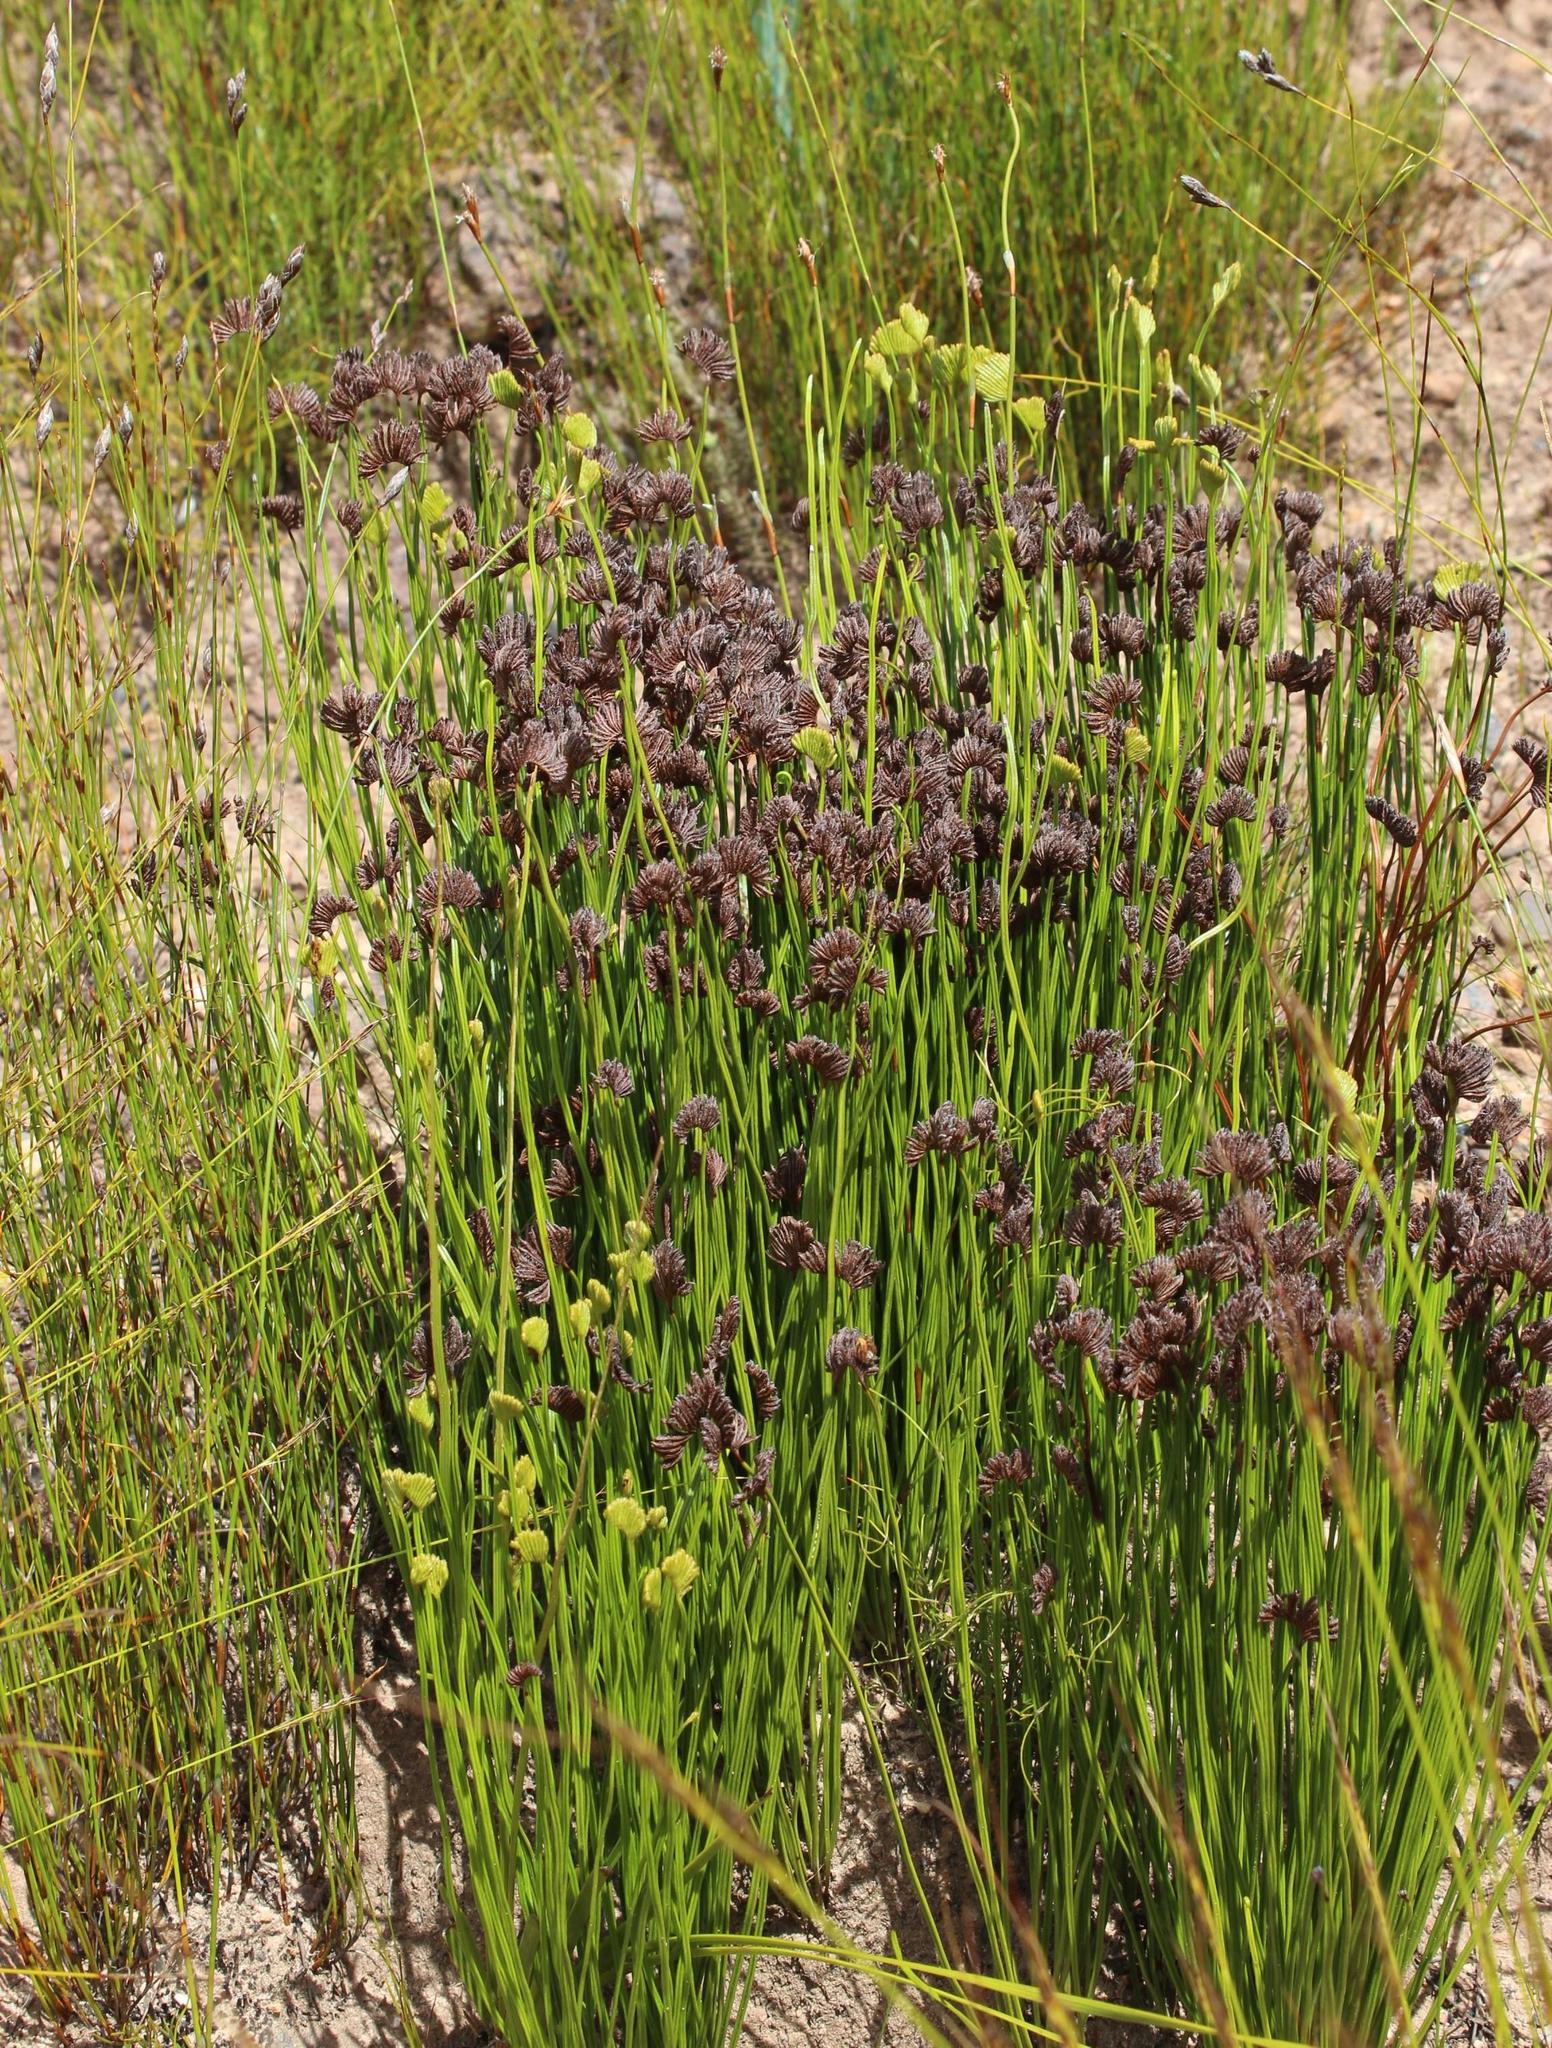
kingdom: Plantae
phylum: Tracheophyta
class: Polypodiopsida
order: Schizaeales
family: Schizaeaceae
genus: Schizaea
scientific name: Schizaea pectinata
